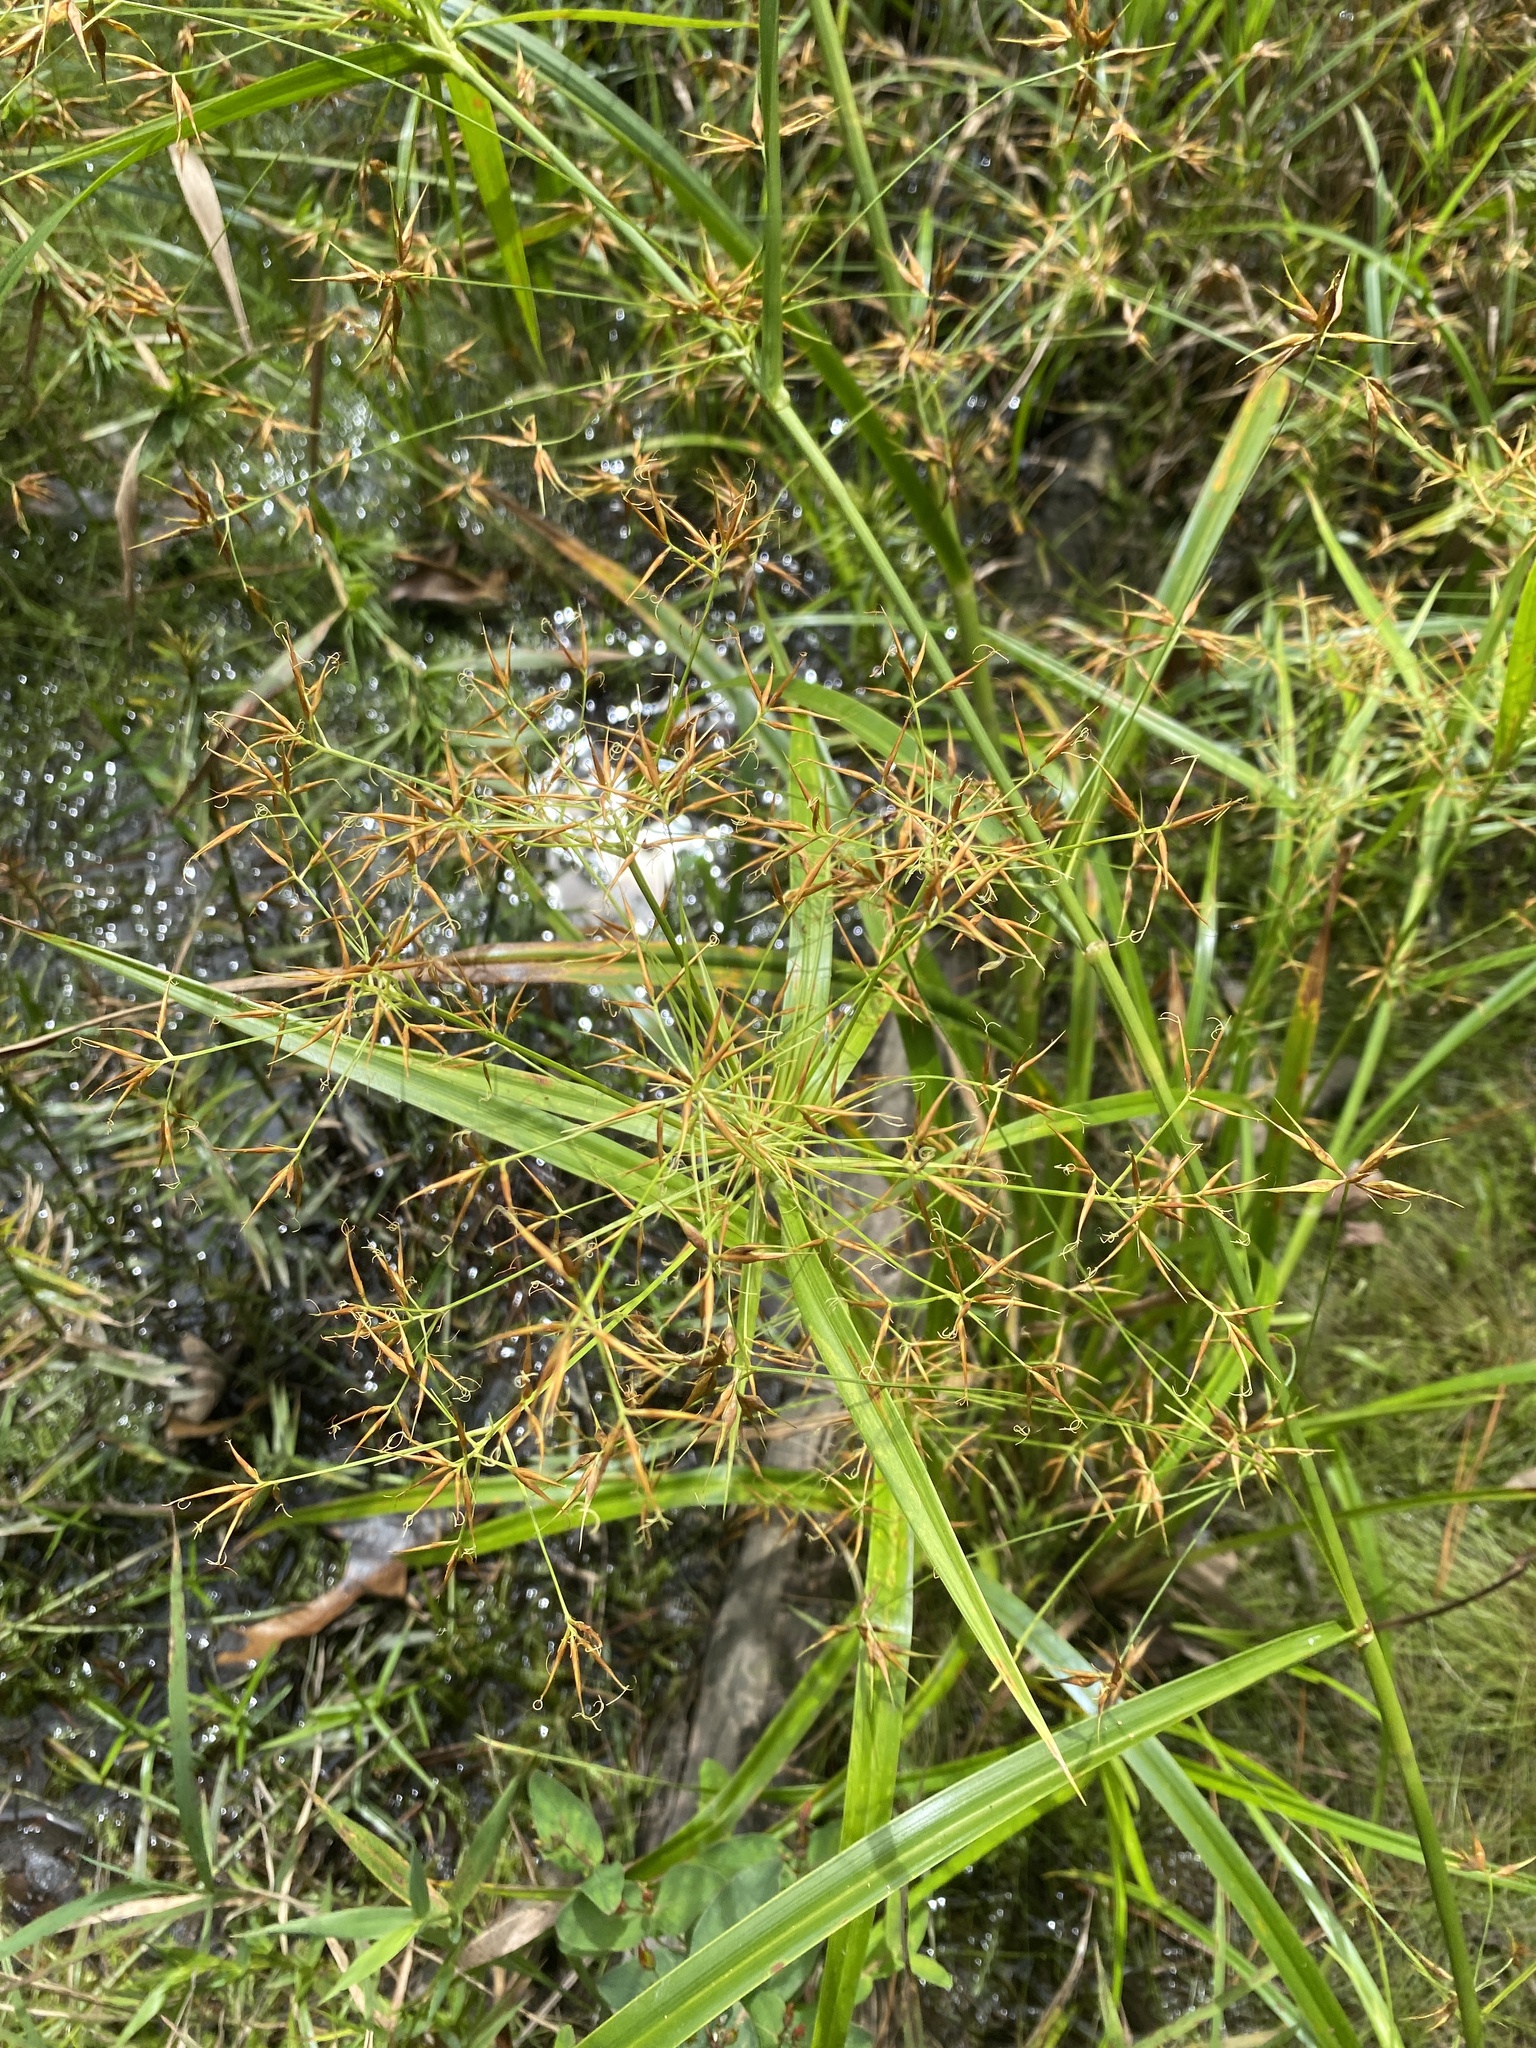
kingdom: Plantae
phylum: Tracheophyta
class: Liliopsida
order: Poales
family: Cyperaceae
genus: Rhynchospora
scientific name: Rhynchospora corniculata
